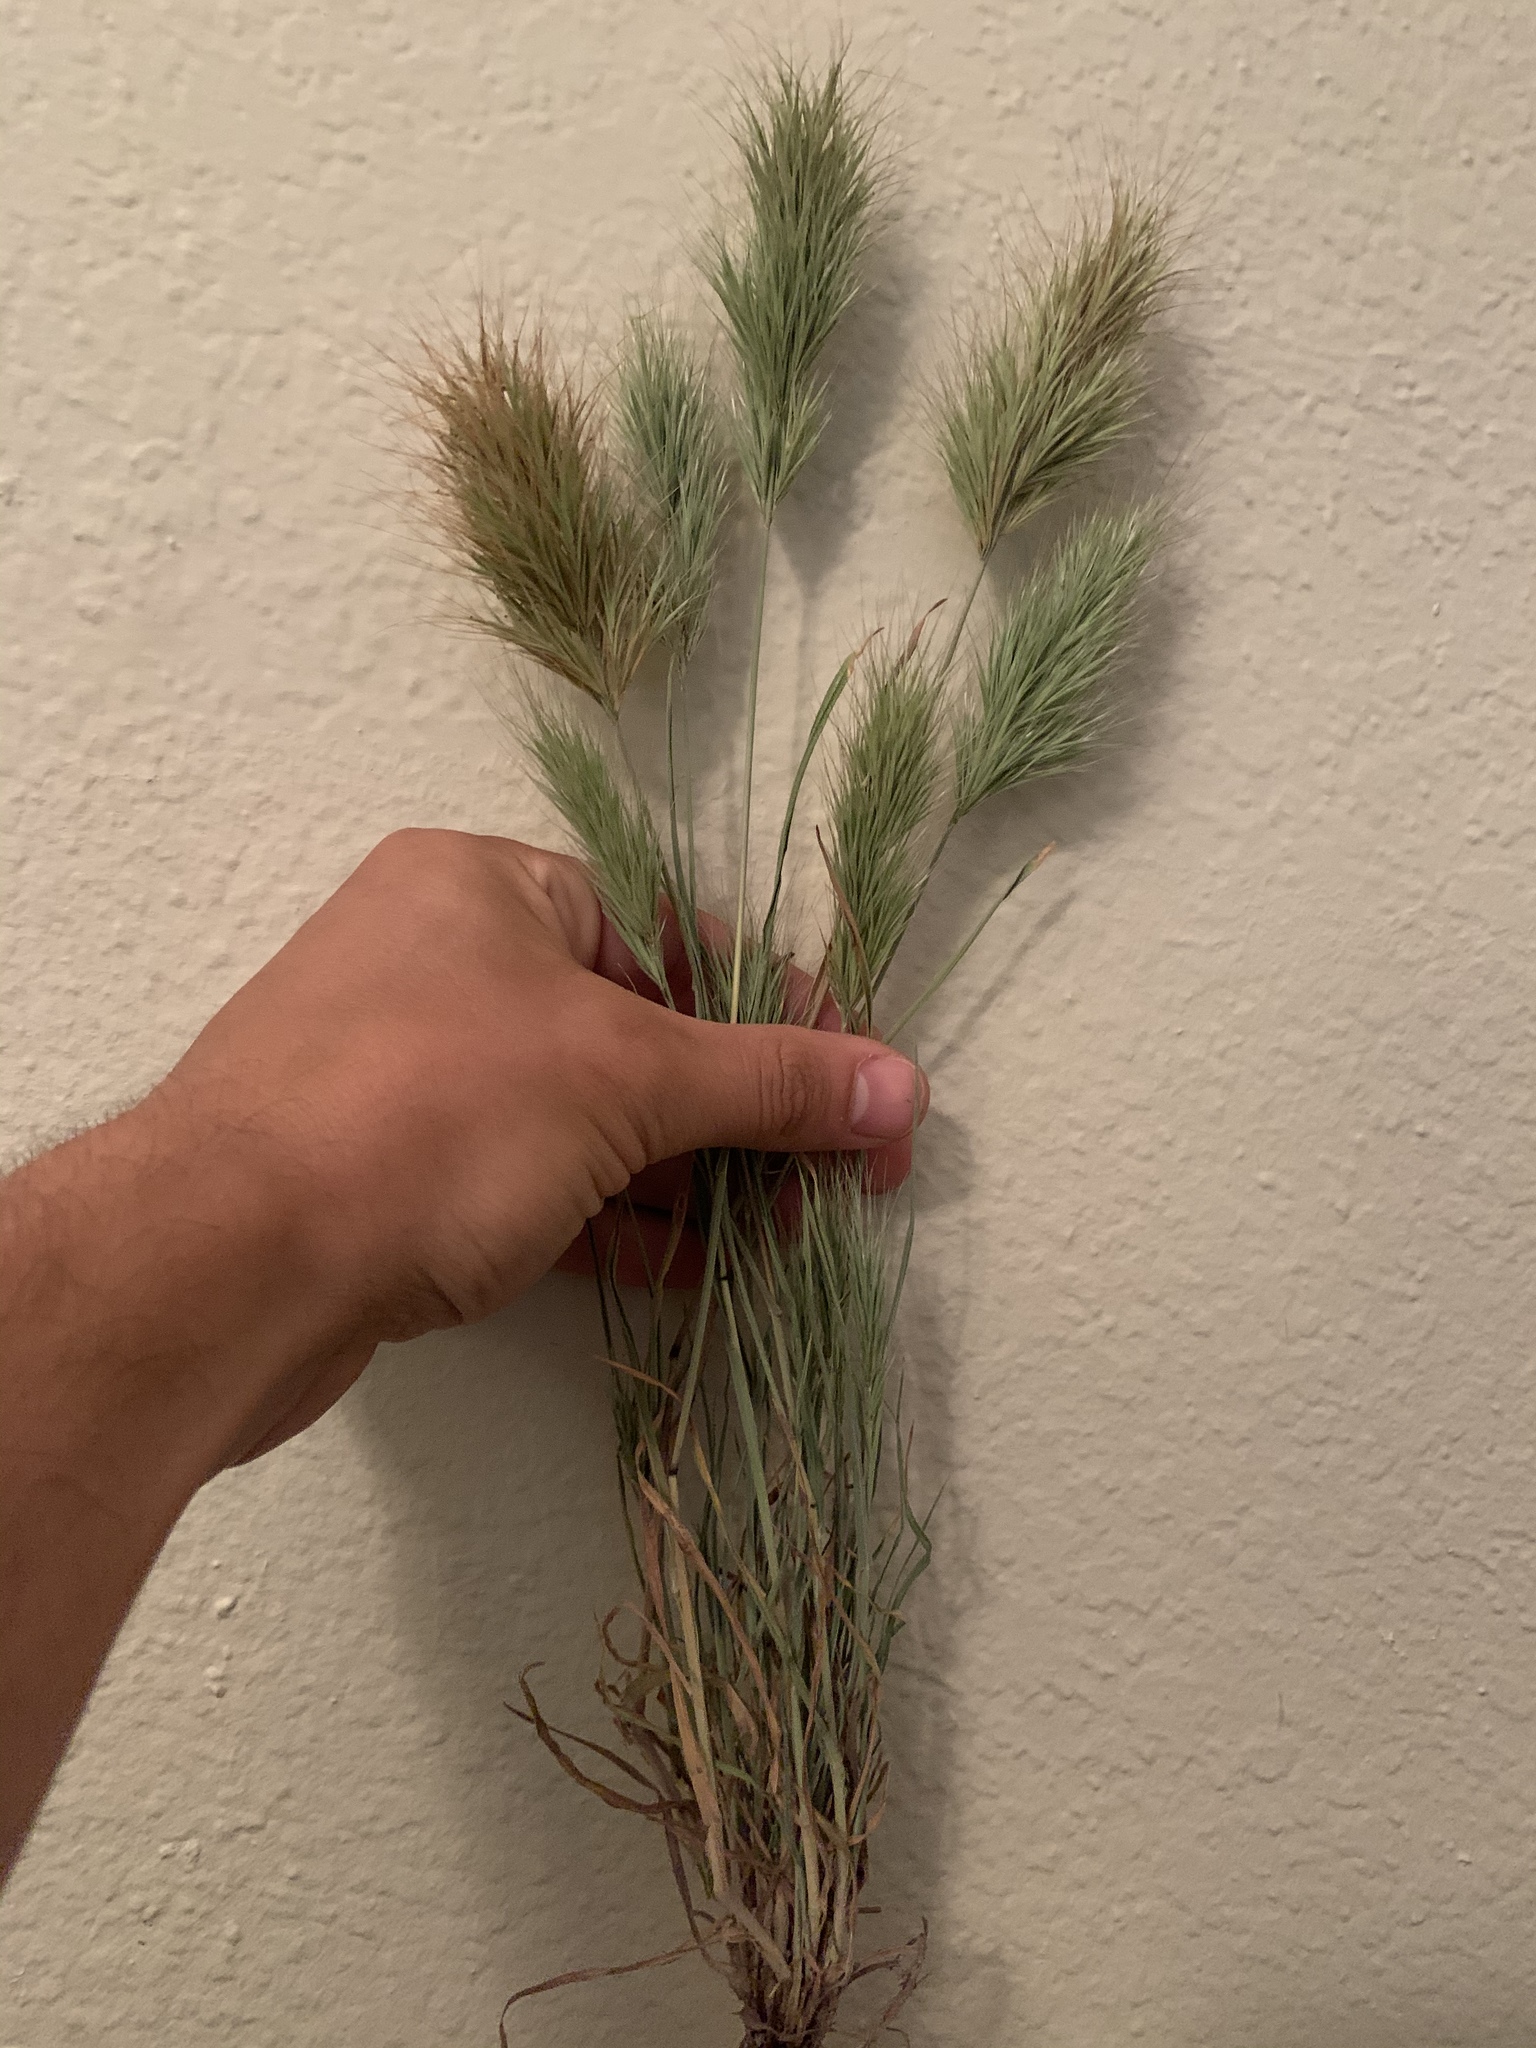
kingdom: Plantae
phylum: Tracheophyta
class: Liliopsida
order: Poales
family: Poaceae
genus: Bromus
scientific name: Bromus rubens
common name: Red brome
